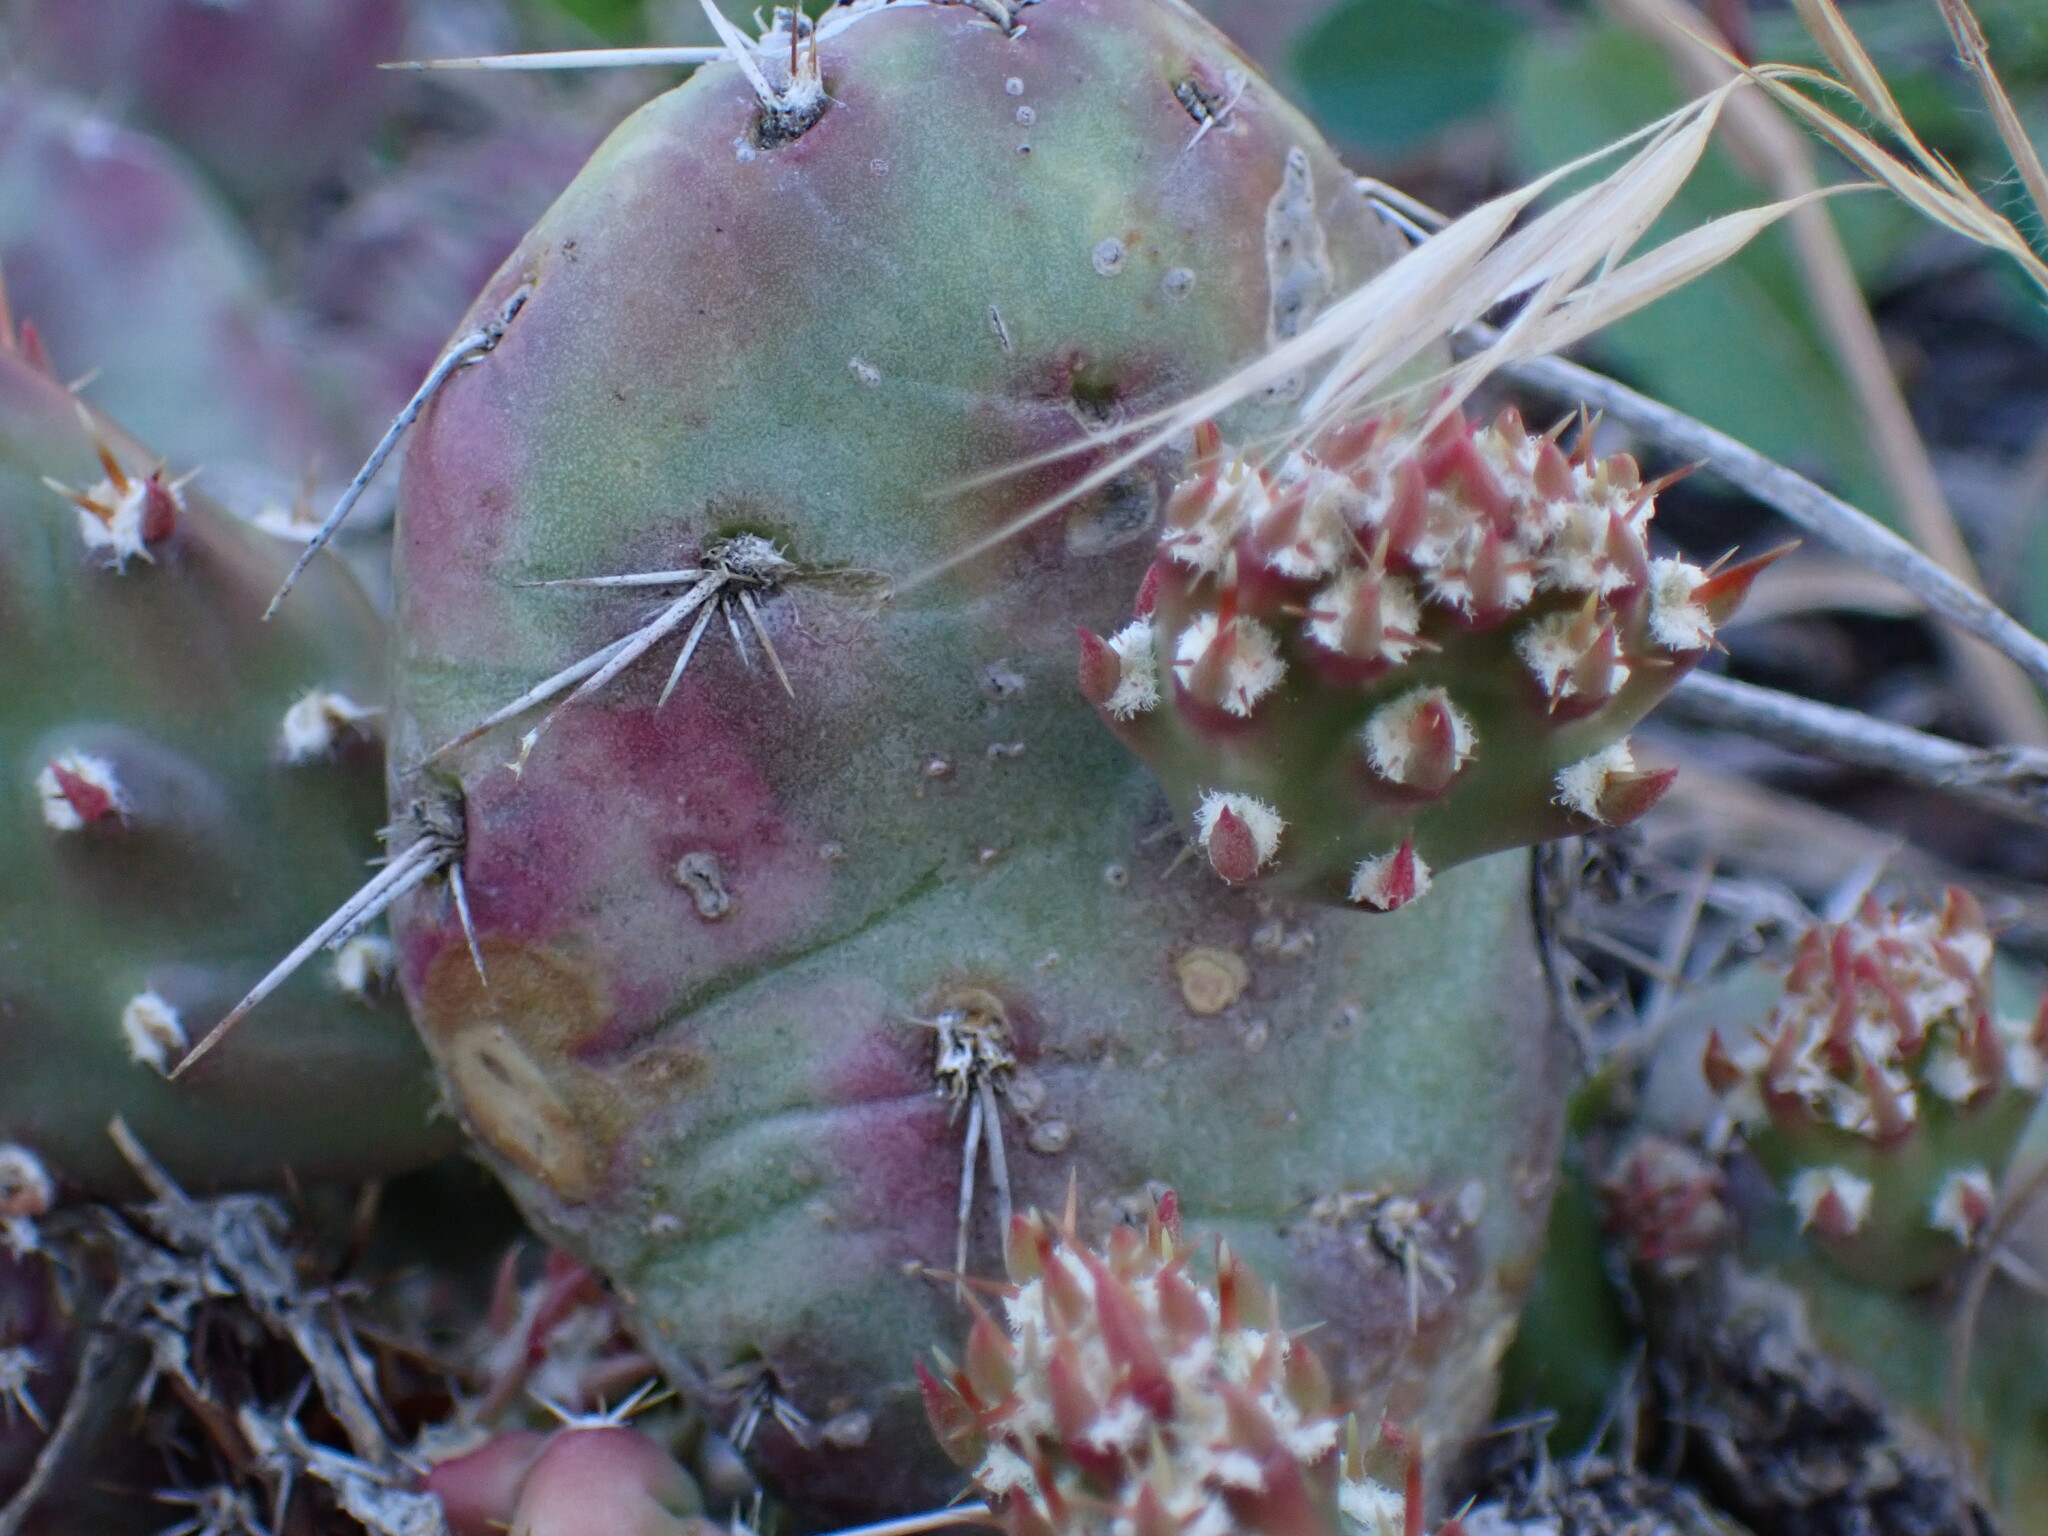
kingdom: Plantae
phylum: Tracheophyta
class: Magnoliopsida
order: Caryophyllales
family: Cactaceae
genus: Opuntia
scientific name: Opuntia fragilis
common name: Brittle cactus
